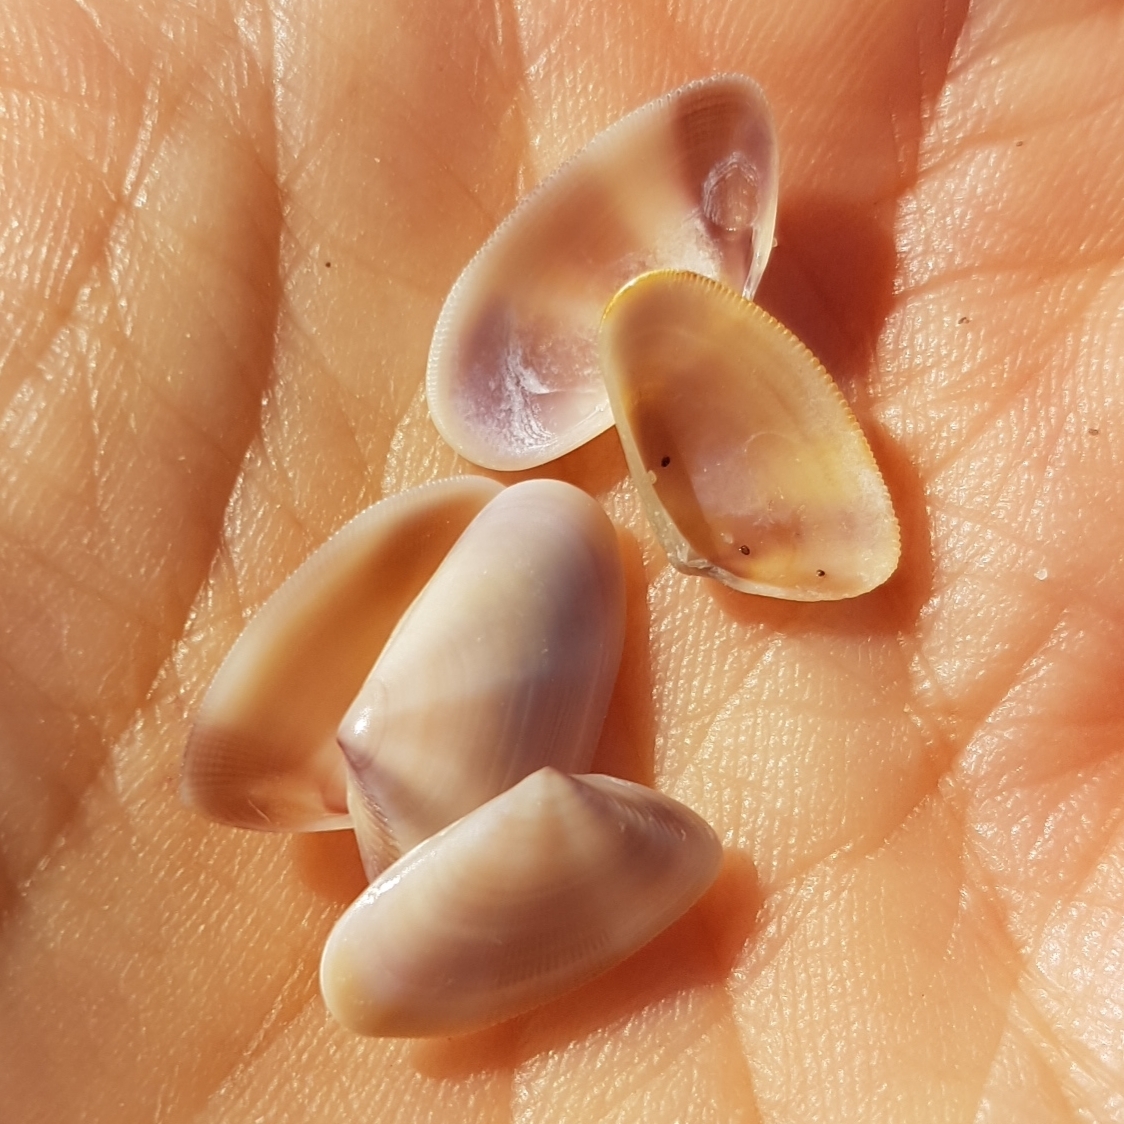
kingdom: Animalia
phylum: Mollusca
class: Bivalvia
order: Cardiida
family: Donacidae
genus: Donax
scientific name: Donax semistriatus
